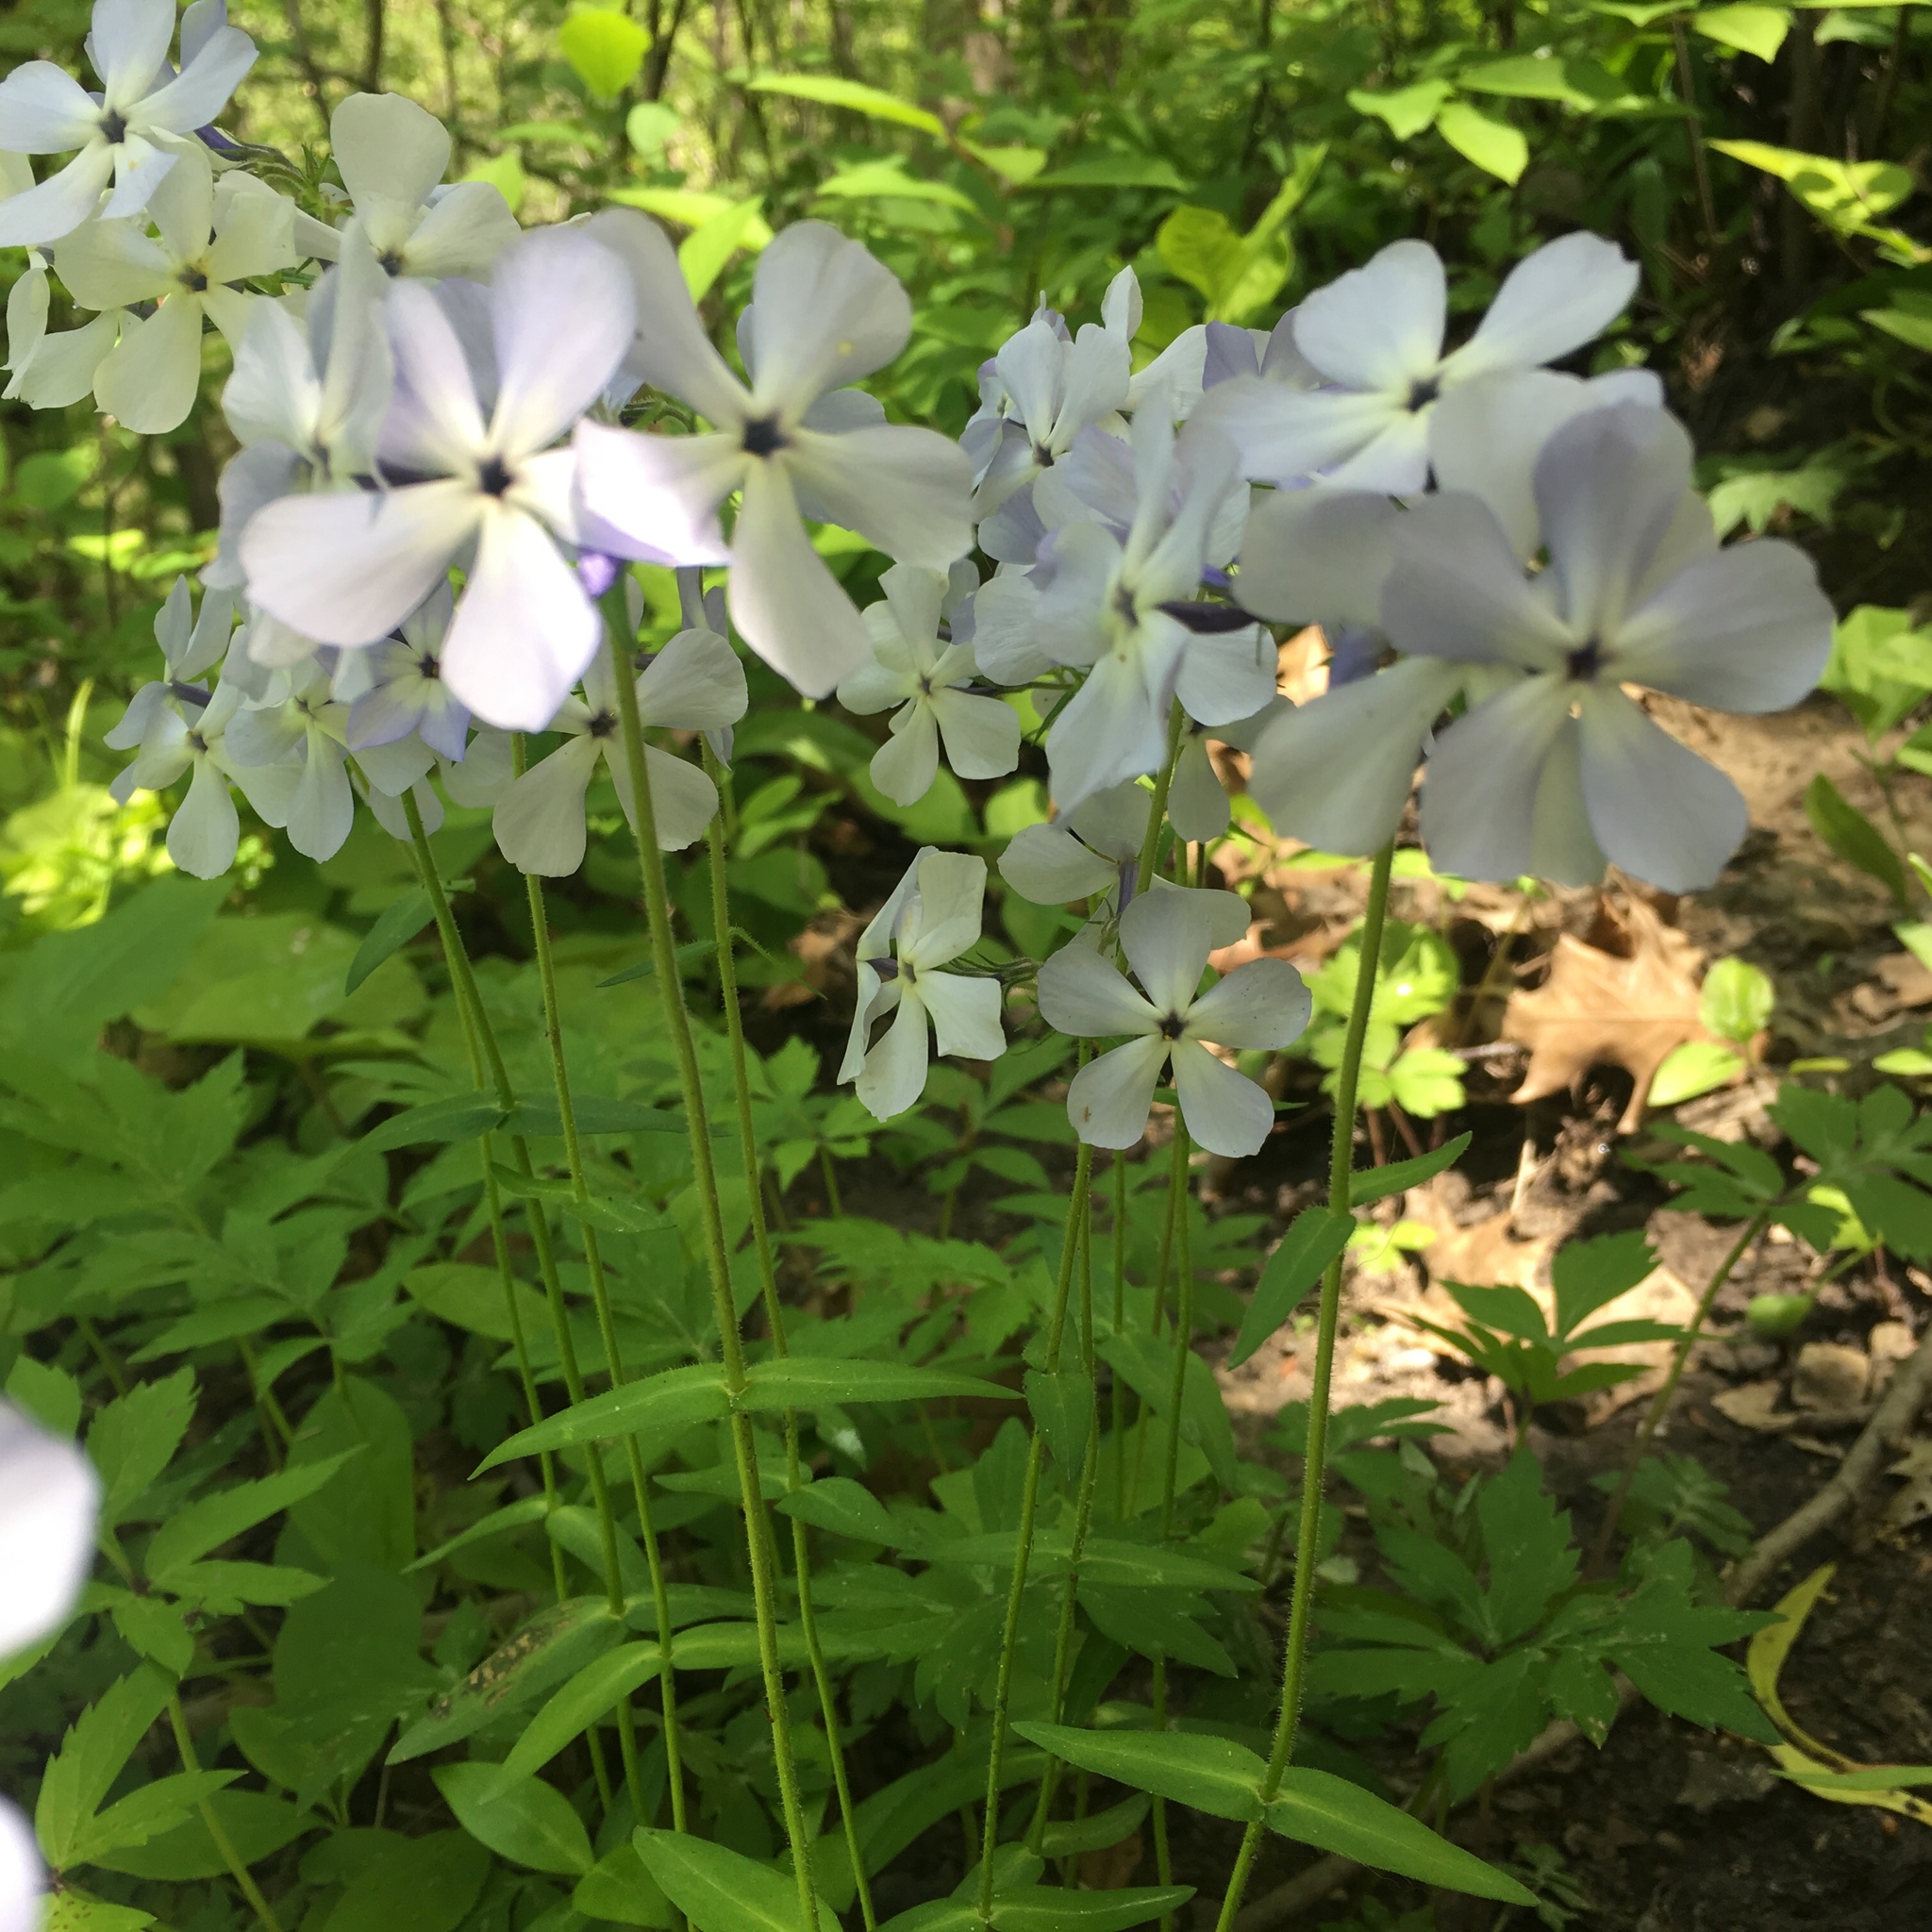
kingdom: Plantae
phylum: Tracheophyta
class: Magnoliopsida
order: Ericales
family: Polemoniaceae
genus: Phlox
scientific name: Phlox divaricata
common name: Blue phlox
